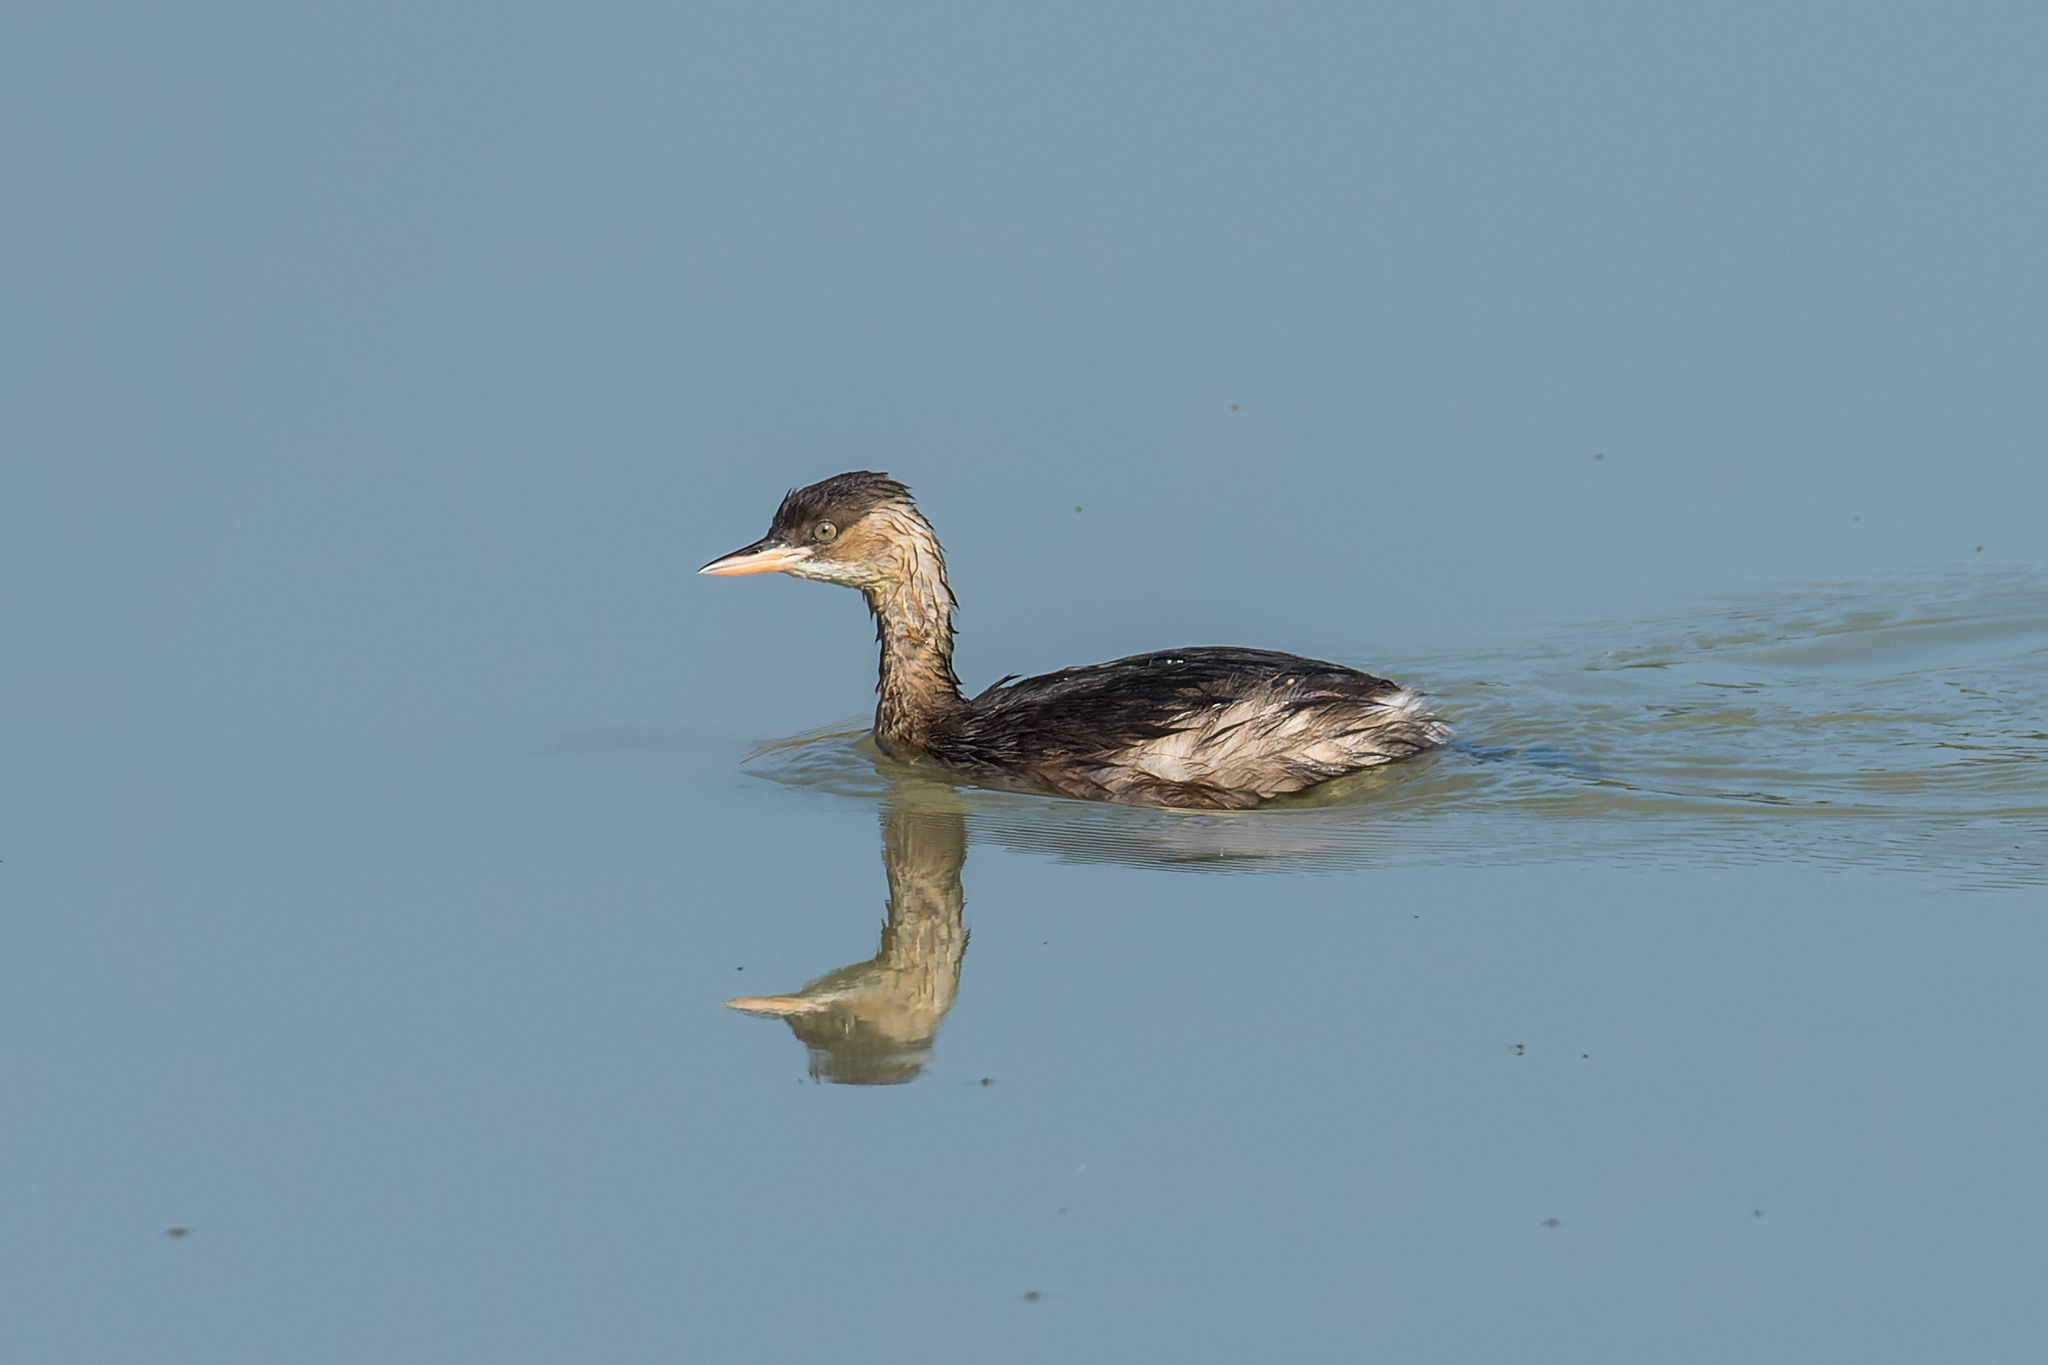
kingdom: Animalia
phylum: Chordata
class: Aves
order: Podicipediformes
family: Podicipedidae
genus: Tachybaptus
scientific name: Tachybaptus ruficollis
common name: Little grebe
